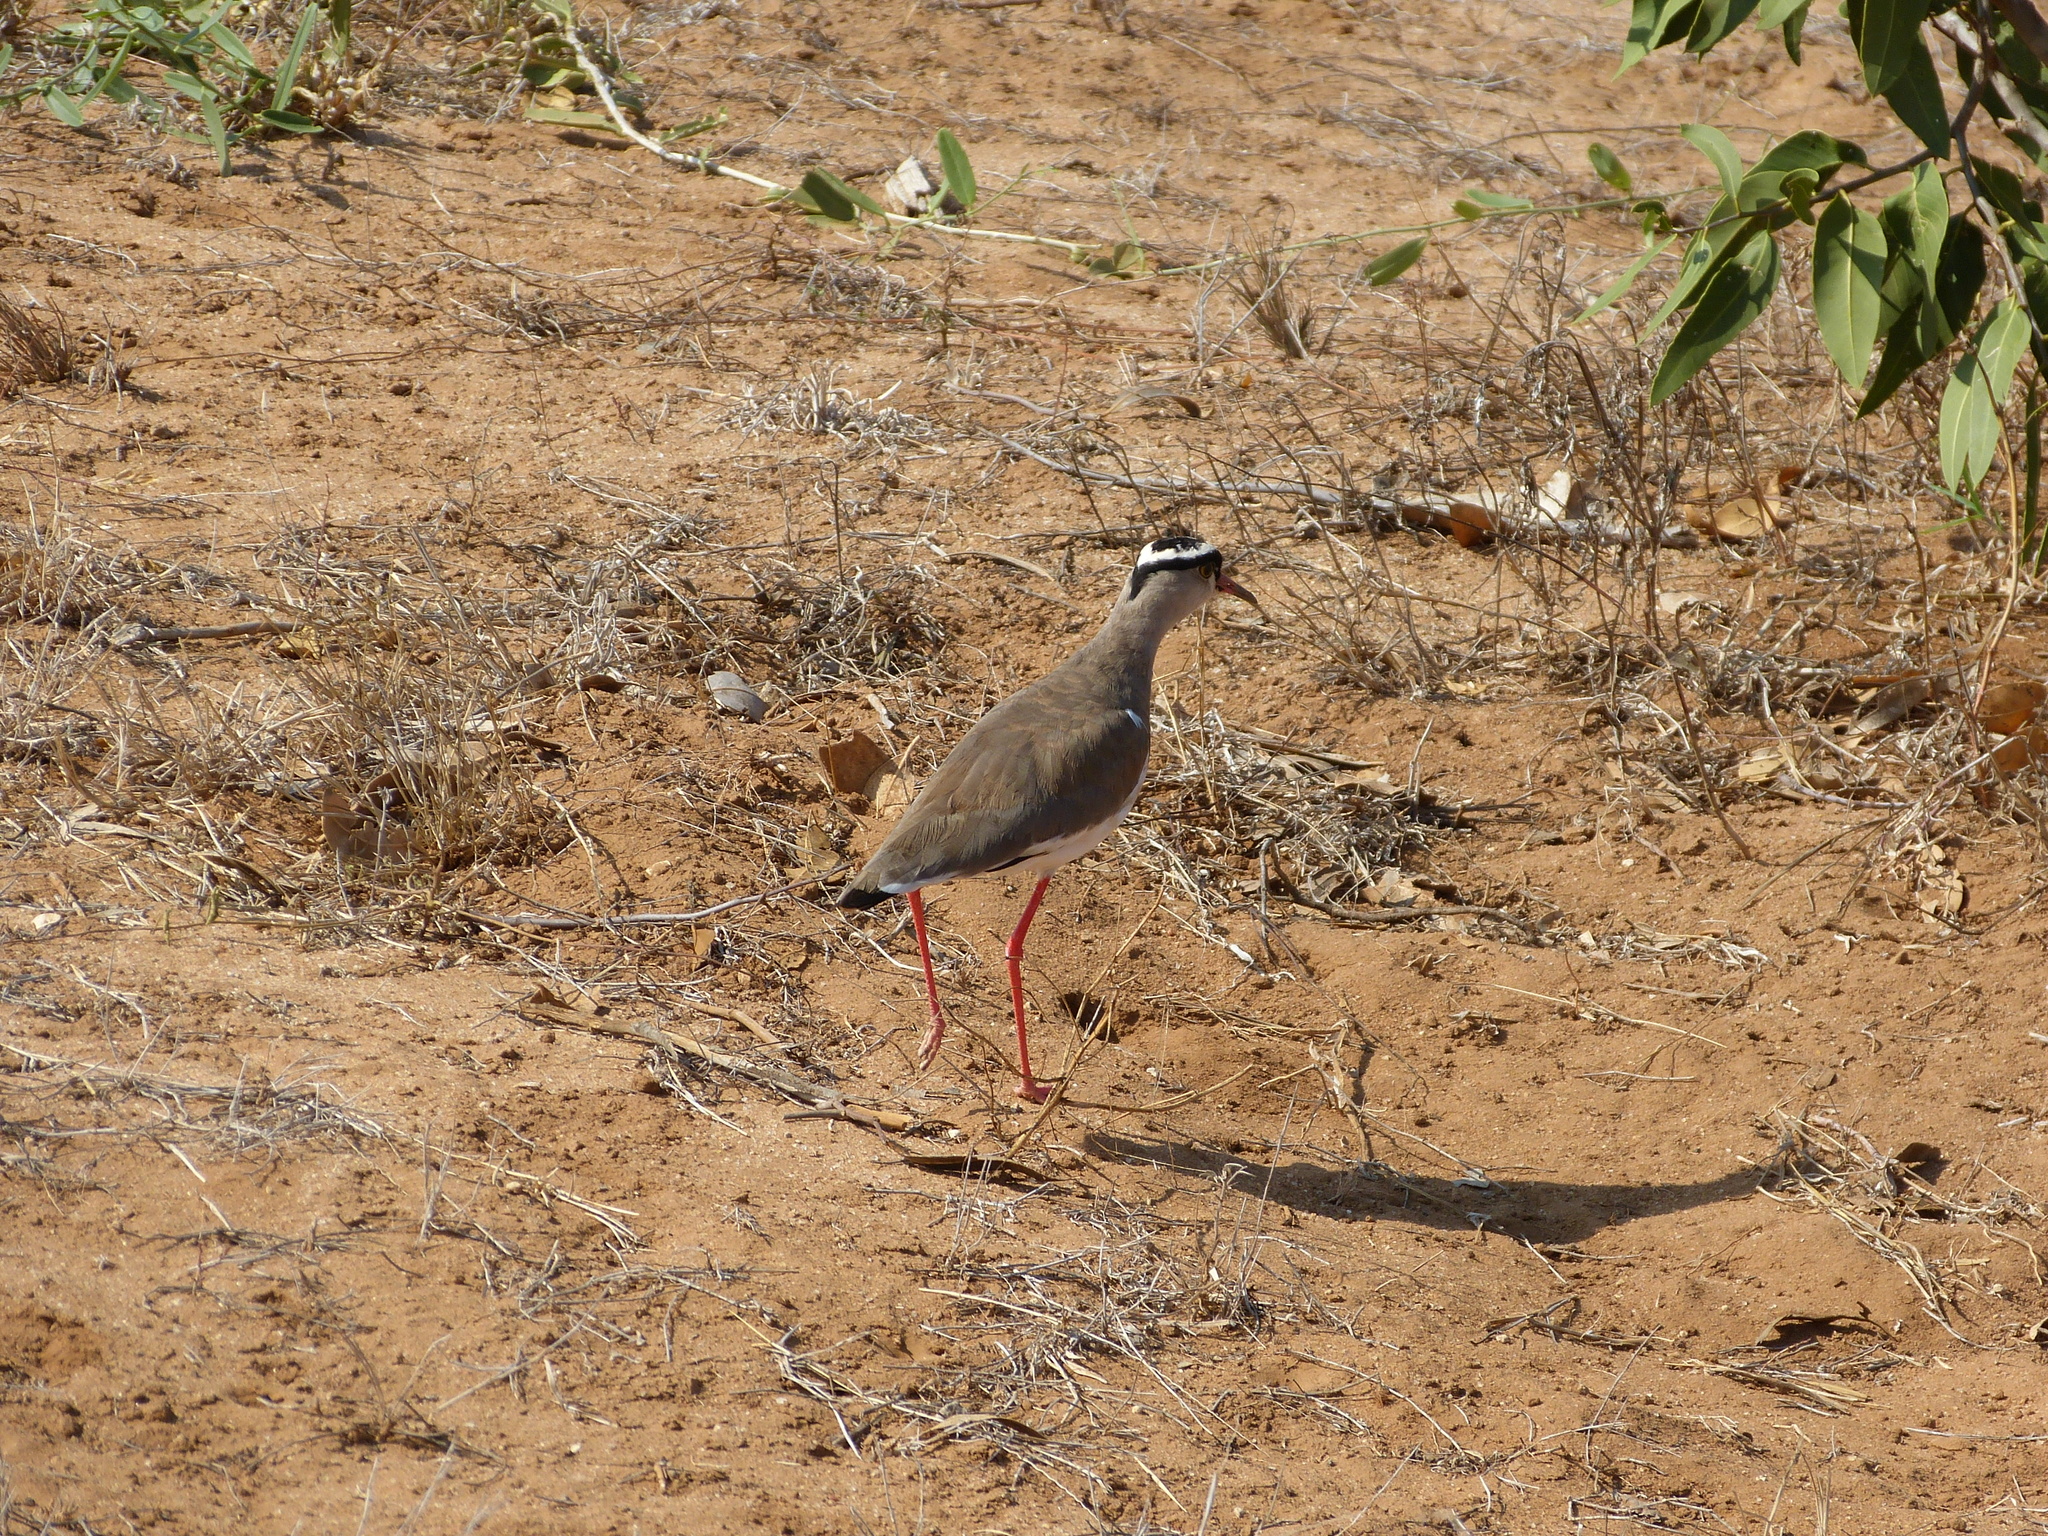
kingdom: Animalia
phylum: Chordata
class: Aves
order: Charadriiformes
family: Charadriidae
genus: Vanellus
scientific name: Vanellus coronatus
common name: Crowned lapwing
